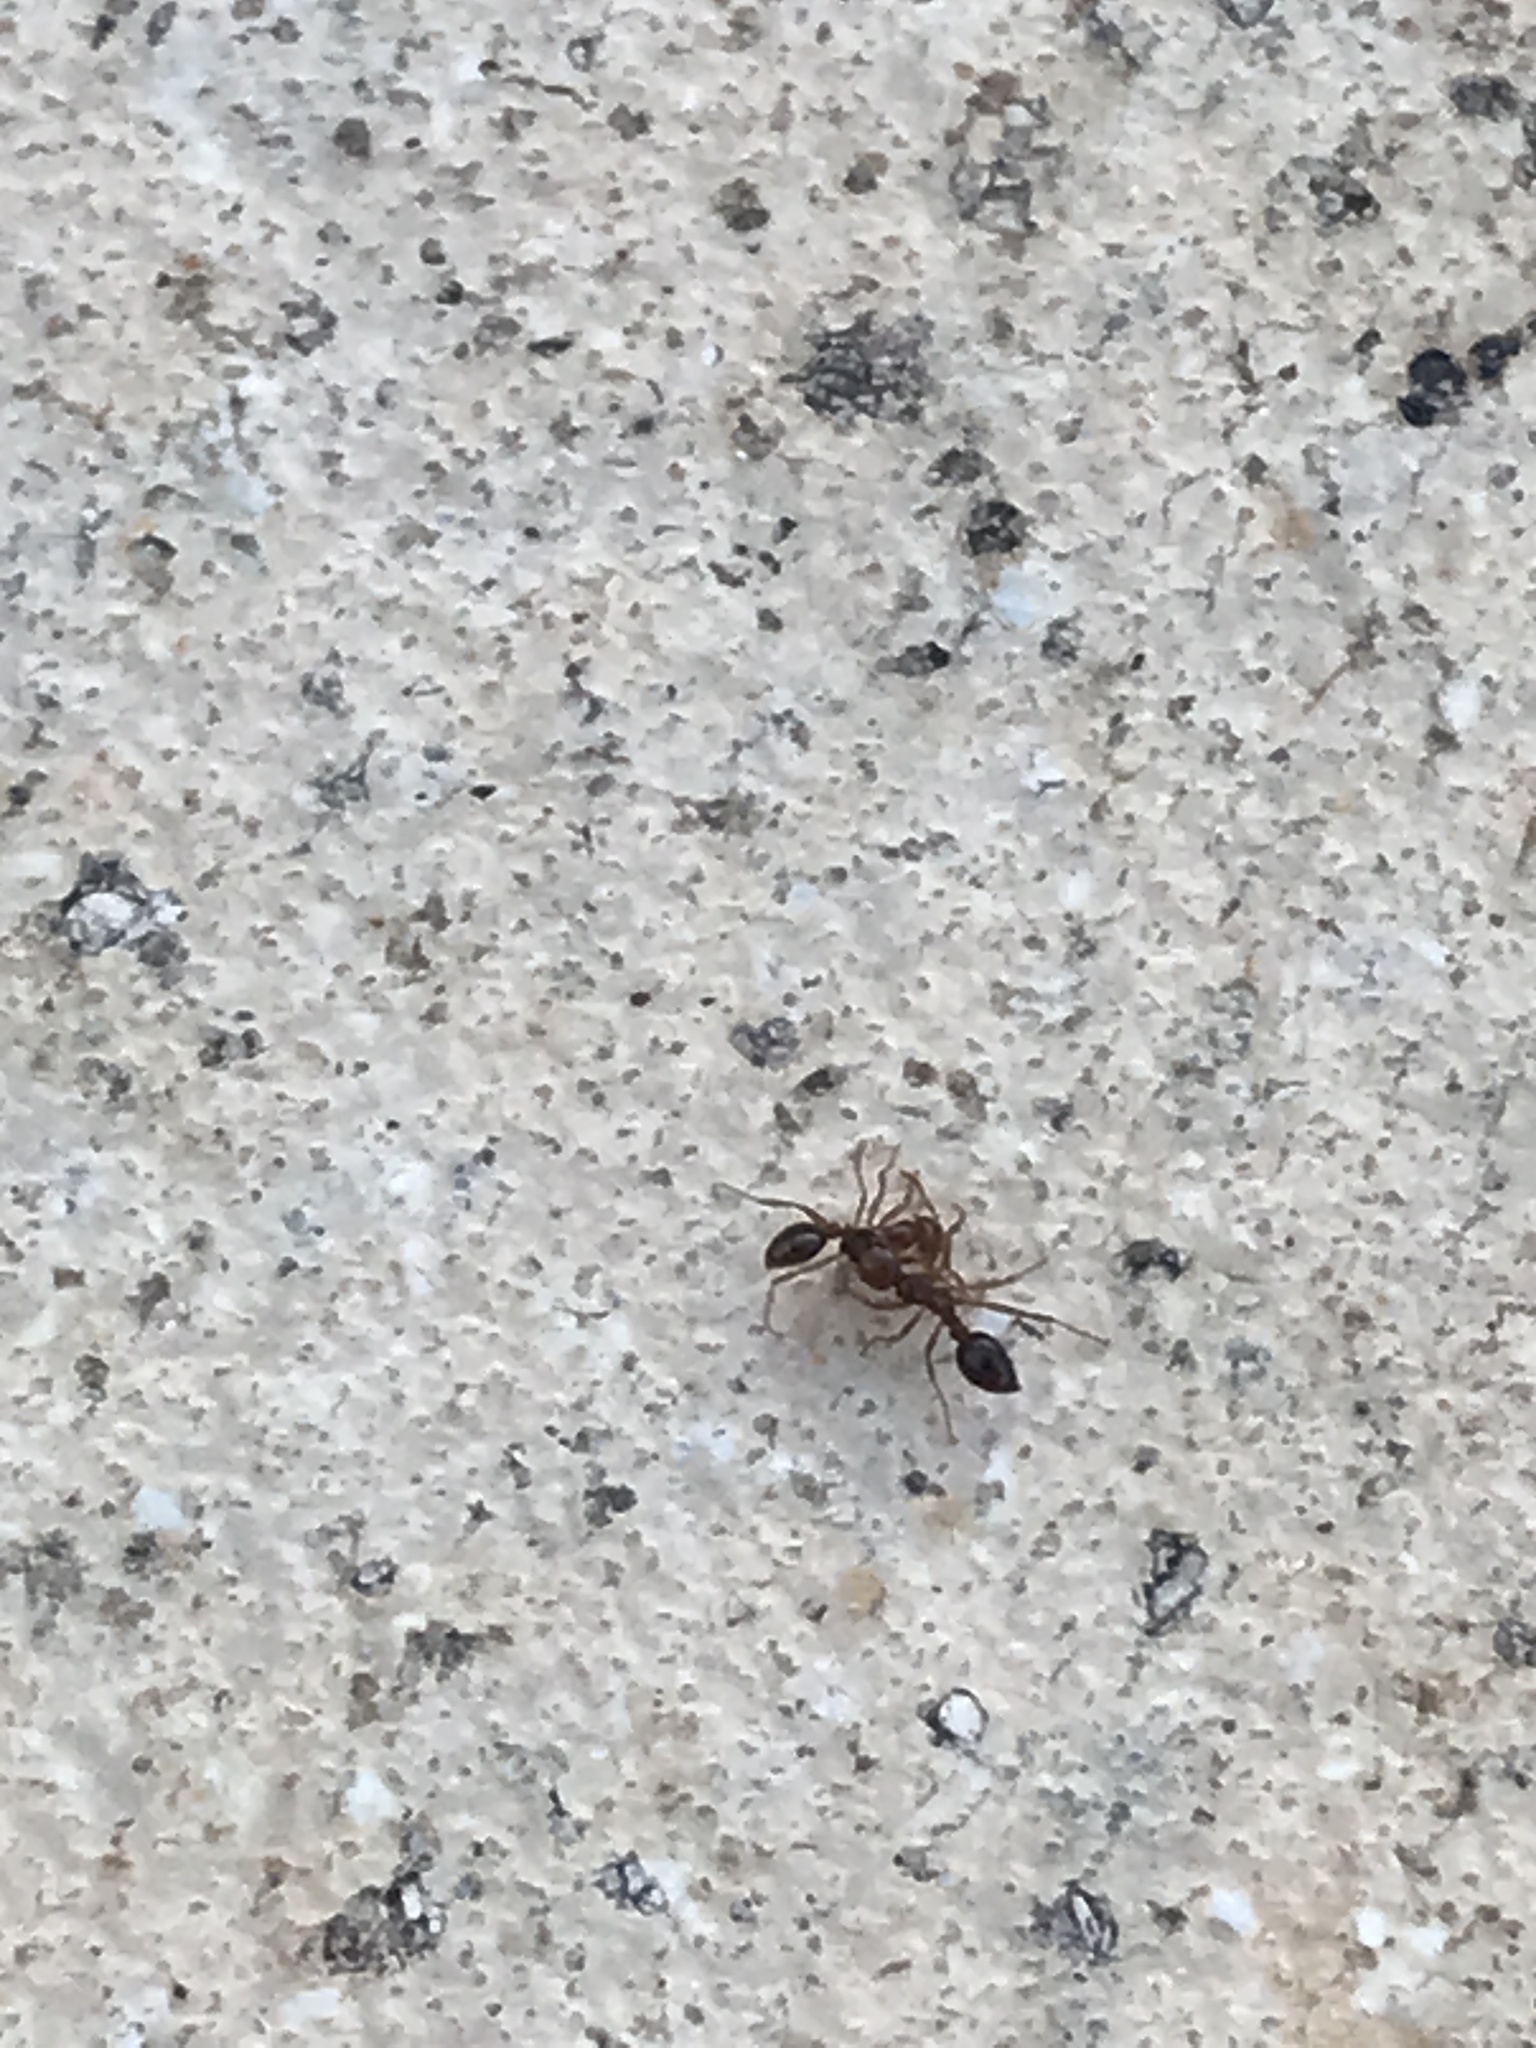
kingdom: Animalia
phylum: Arthropoda
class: Insecta
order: Hymenoptera
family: Formicidae
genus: Solenopsis
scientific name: Solenopsis invicta
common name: Red imported fire ant
